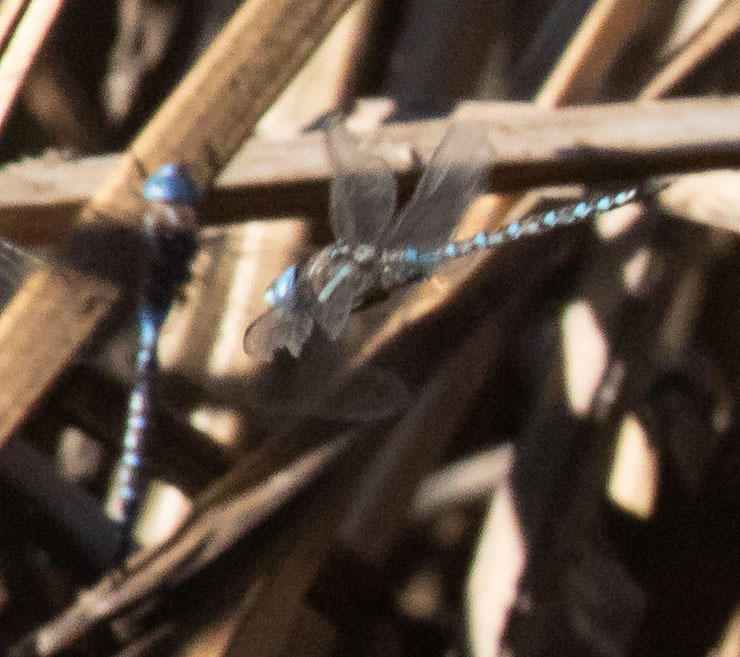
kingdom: Animalia
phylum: Arthropoda
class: Insecta
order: Odonata
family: Aeshnidae
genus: Rhionaeschna
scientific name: Rhionaeschna multicolor
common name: Blue-eyed darner
